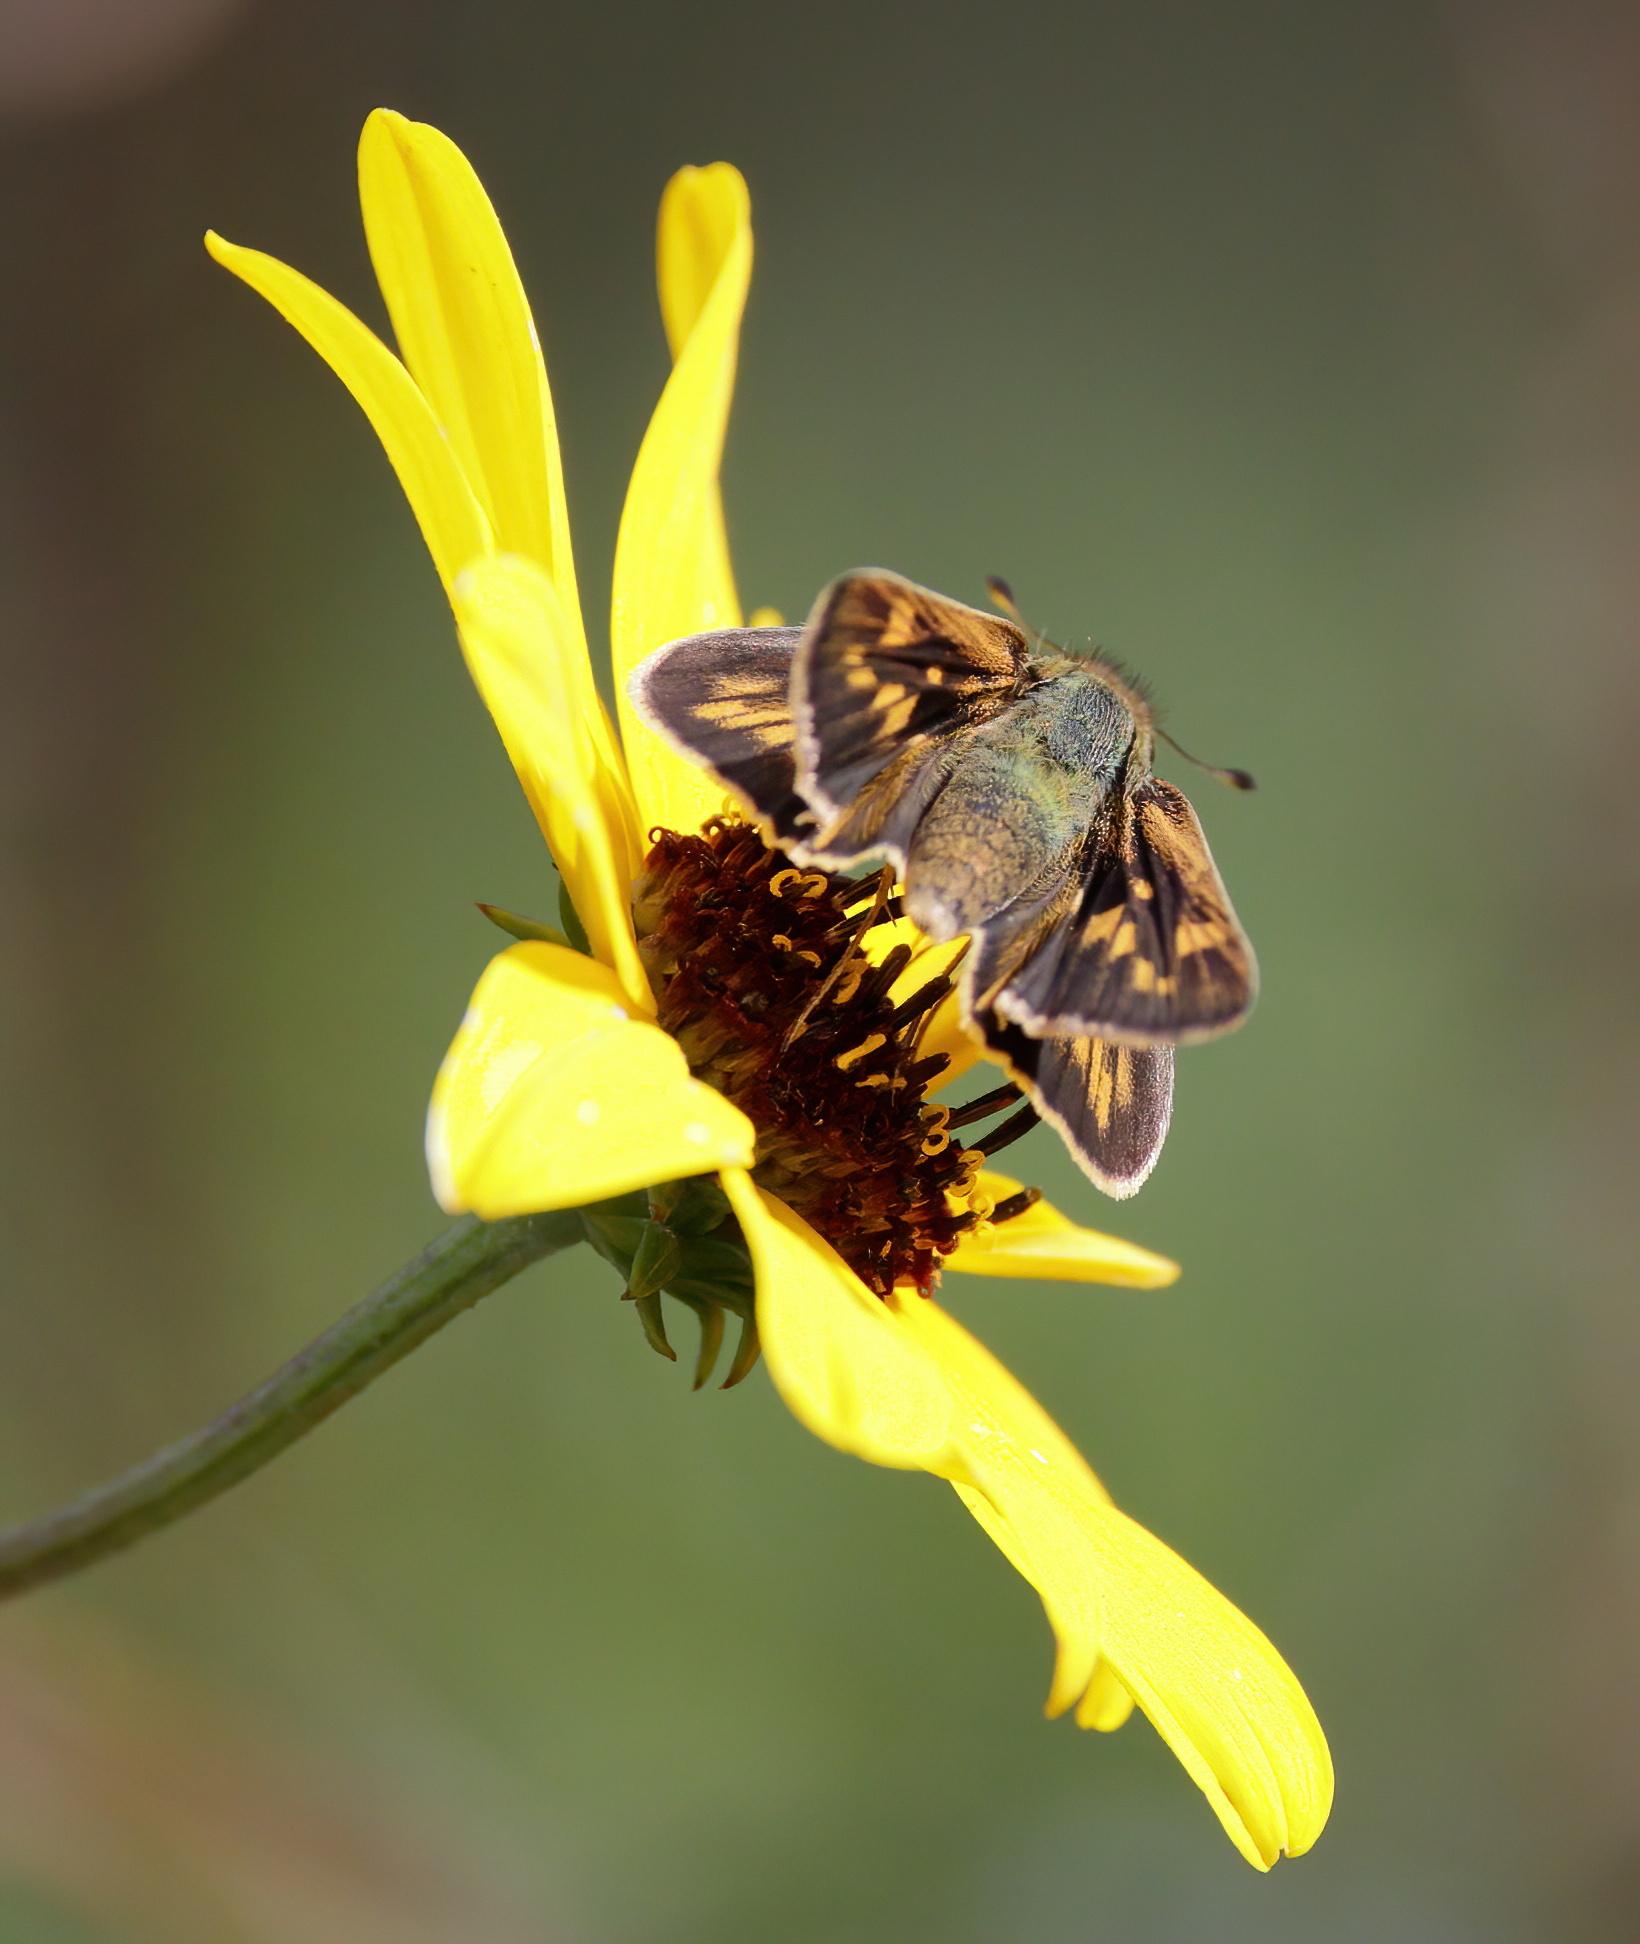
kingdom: Animalia
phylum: Arthropoda
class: Insecta
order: Lepidoptera
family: Hesperiidae
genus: Hylephila
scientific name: Hylephila phyleus
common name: Fiery skipper
